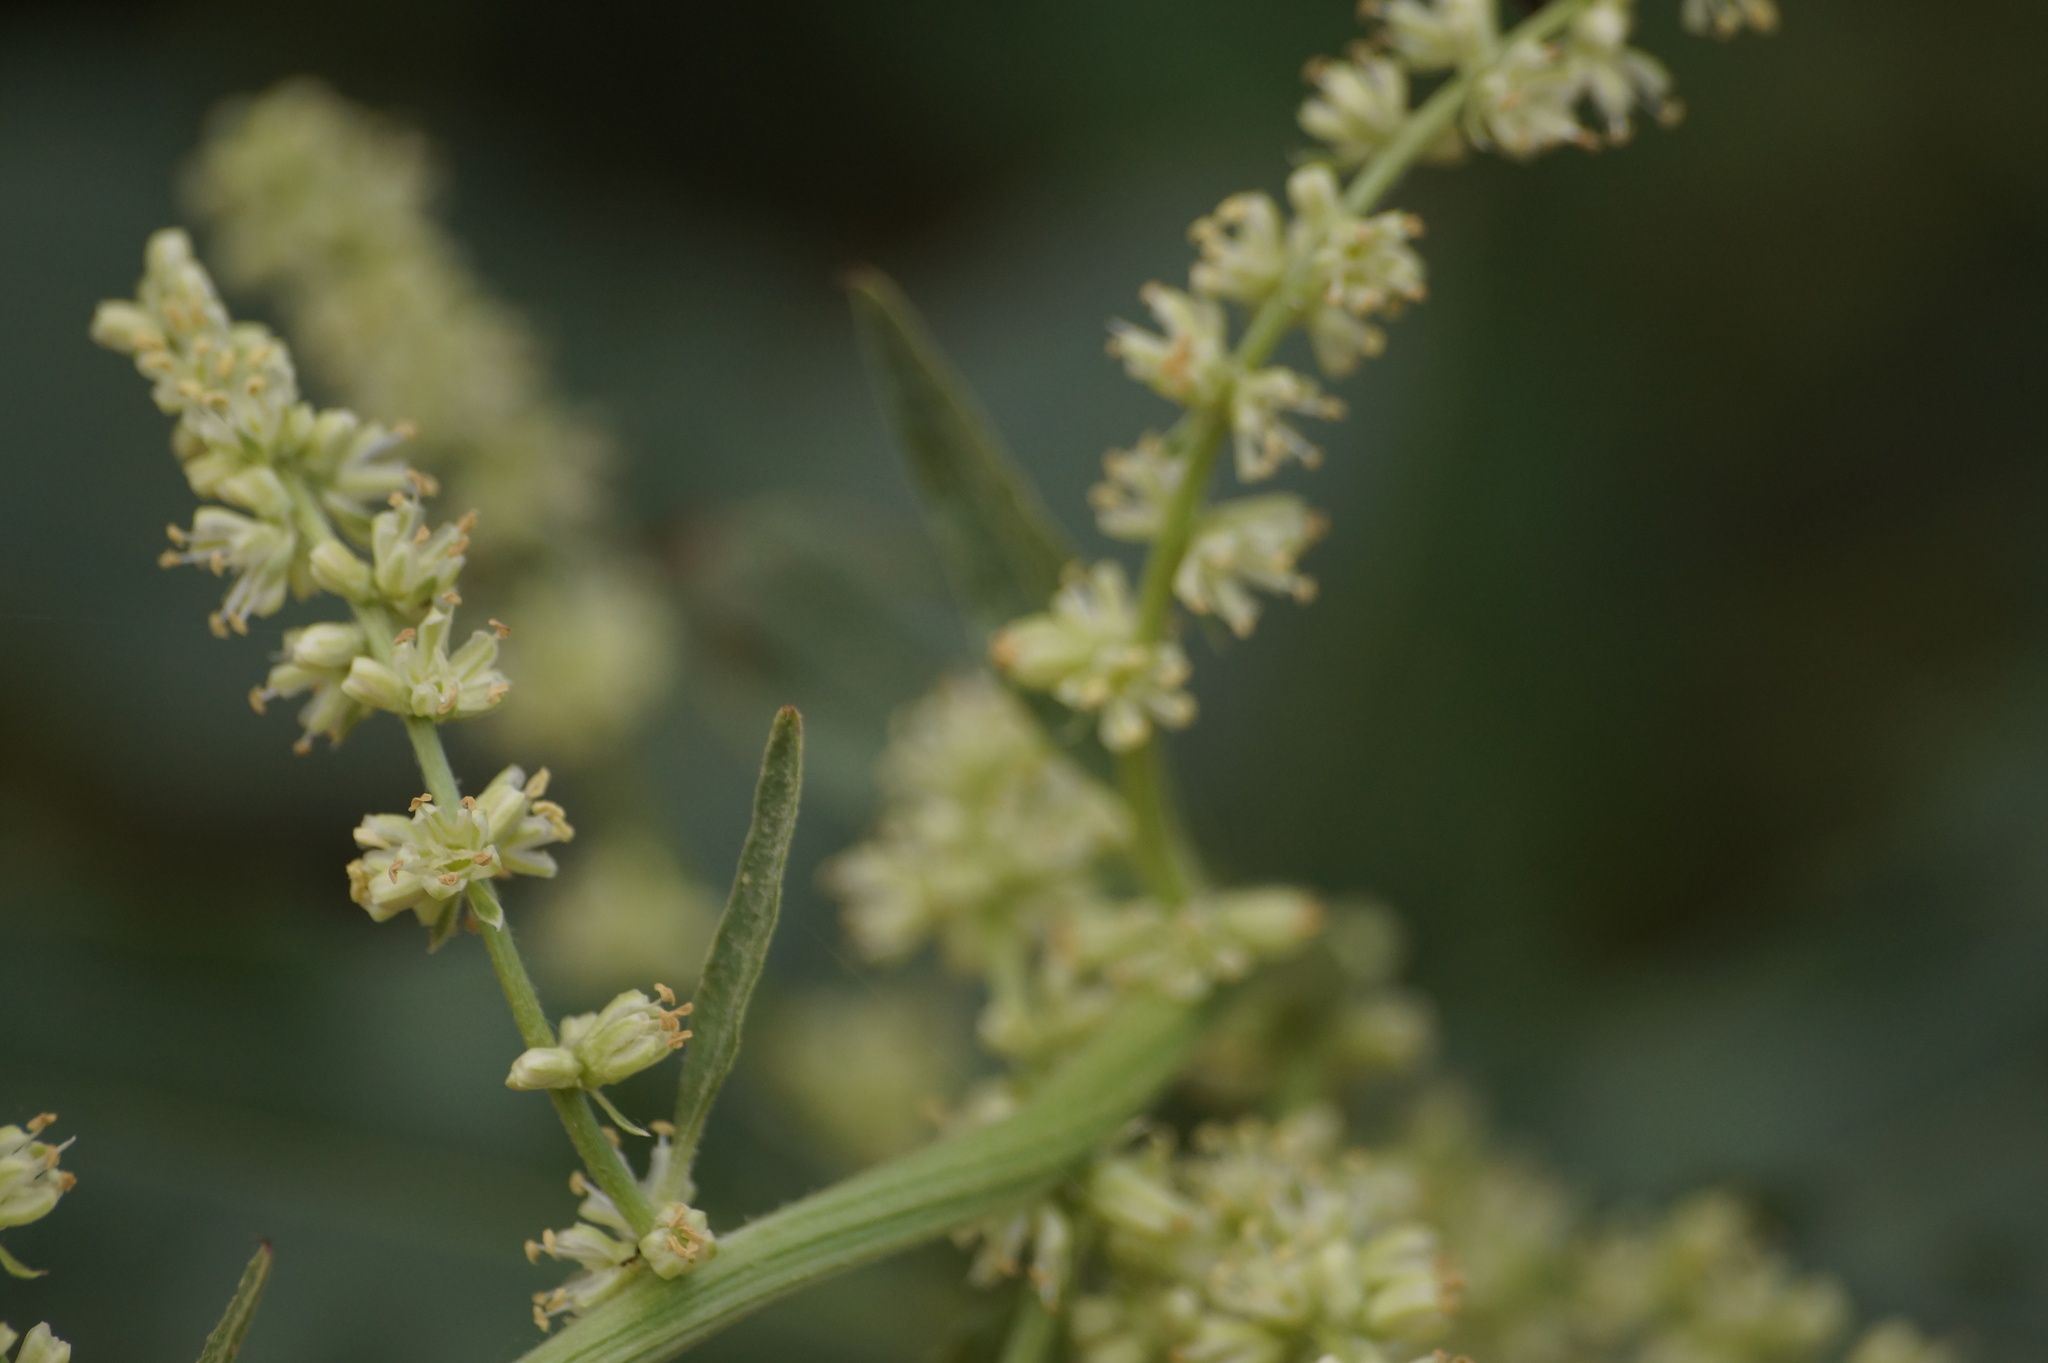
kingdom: Plantae
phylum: Tracheophyta
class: Magnoliopsida
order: Caryophyllales
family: Amaranthaceae
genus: Beta
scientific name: Beta trigyna
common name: Caucasian beet
